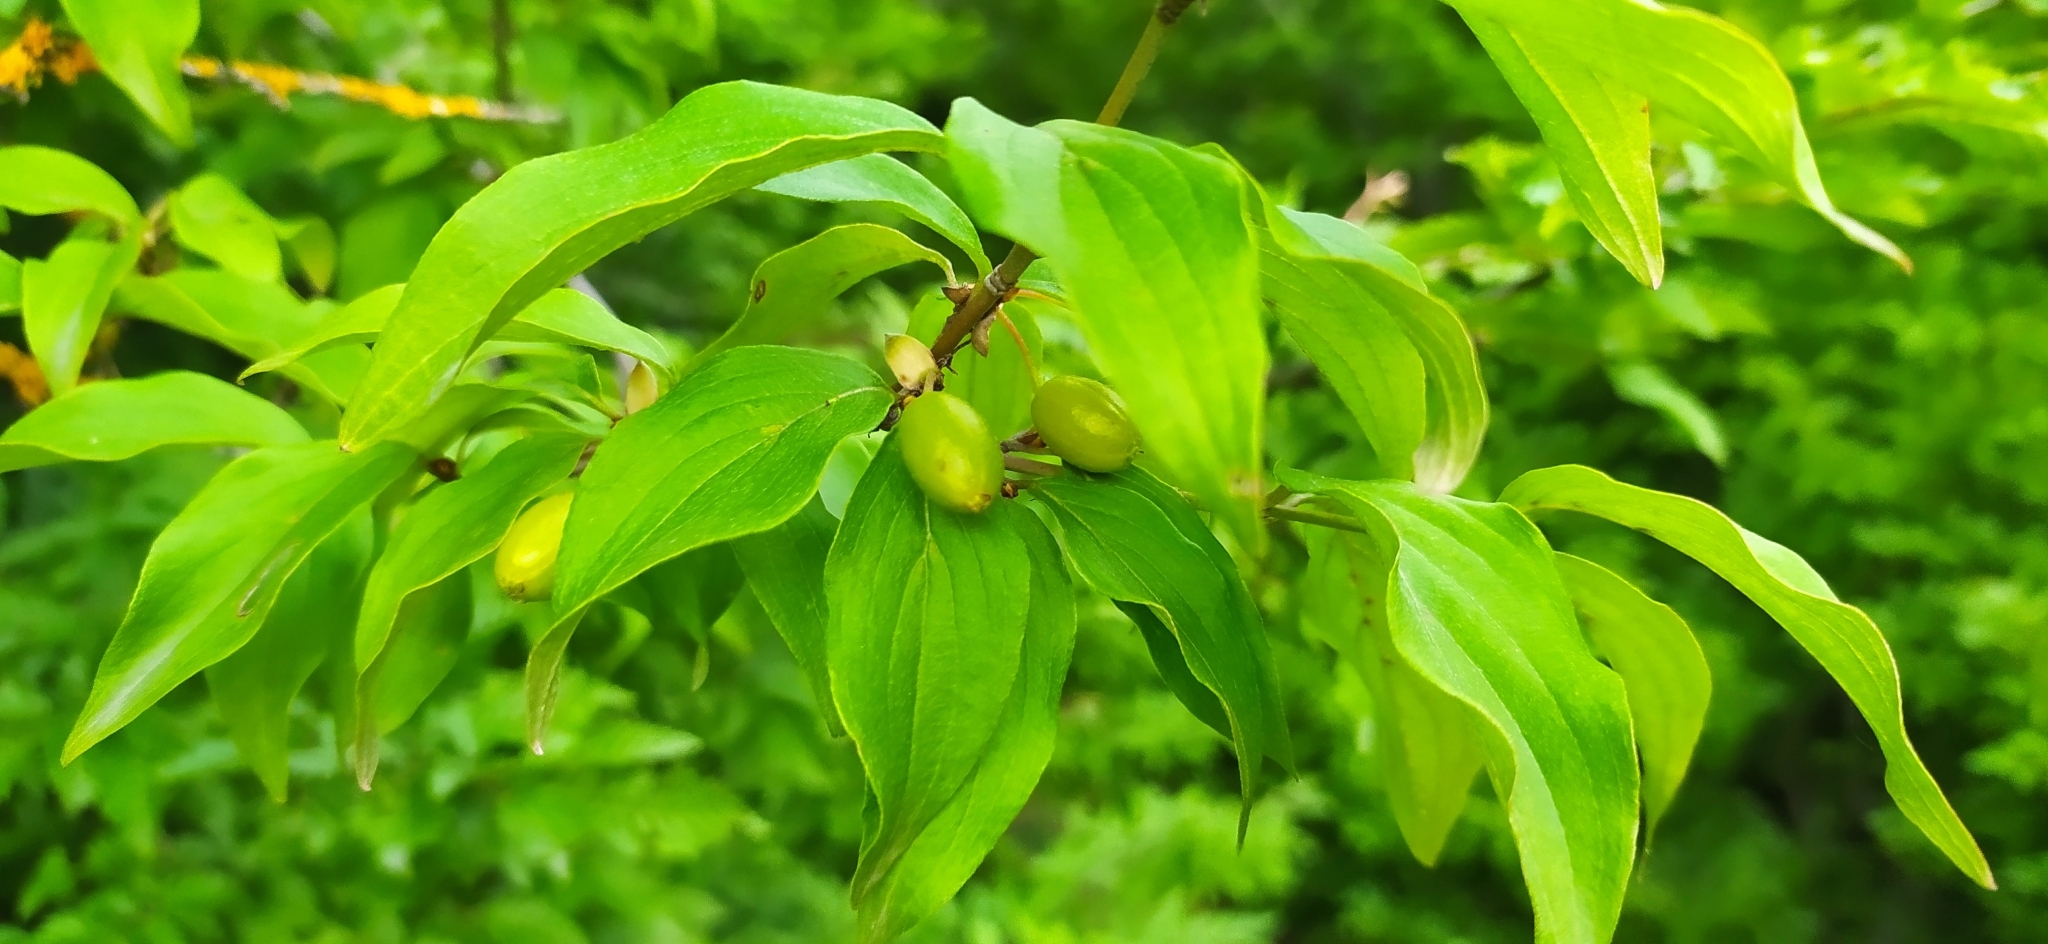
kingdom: Plantae
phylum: Tracheophyta
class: Magnoliopsida
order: Cornales
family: Cornaceae
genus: Cornus
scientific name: Cornus mas
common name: Cornelian-cherry
